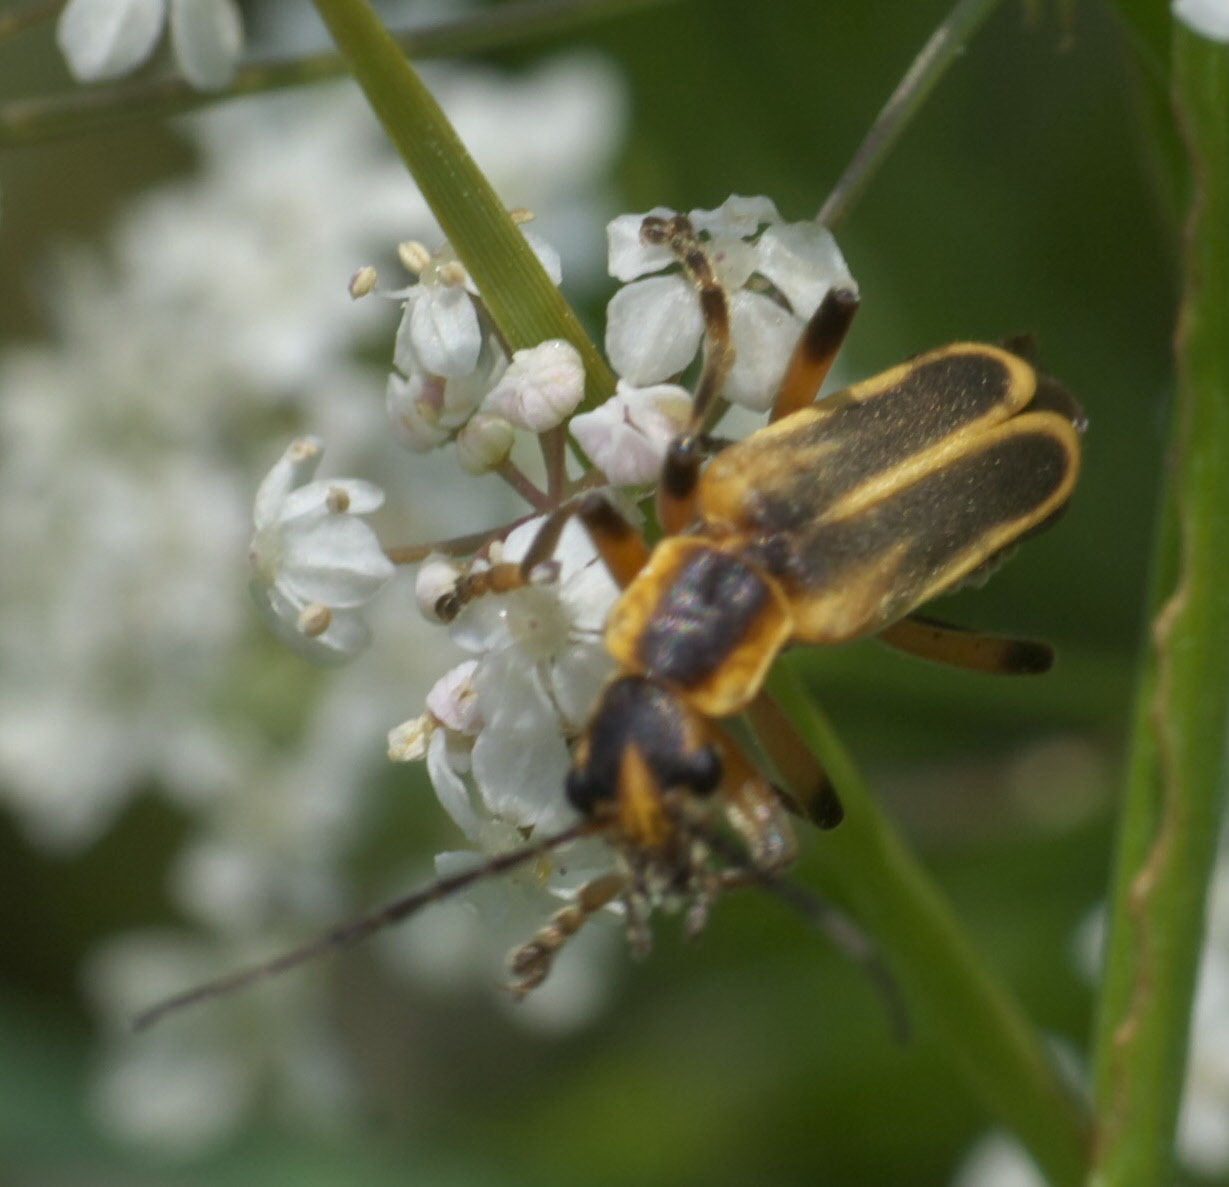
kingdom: Animalia
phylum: Arthropoda
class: Insecta
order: Coleoptera
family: Cantharidae
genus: Chauliognathus
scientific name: Chauliognathus marginatus
